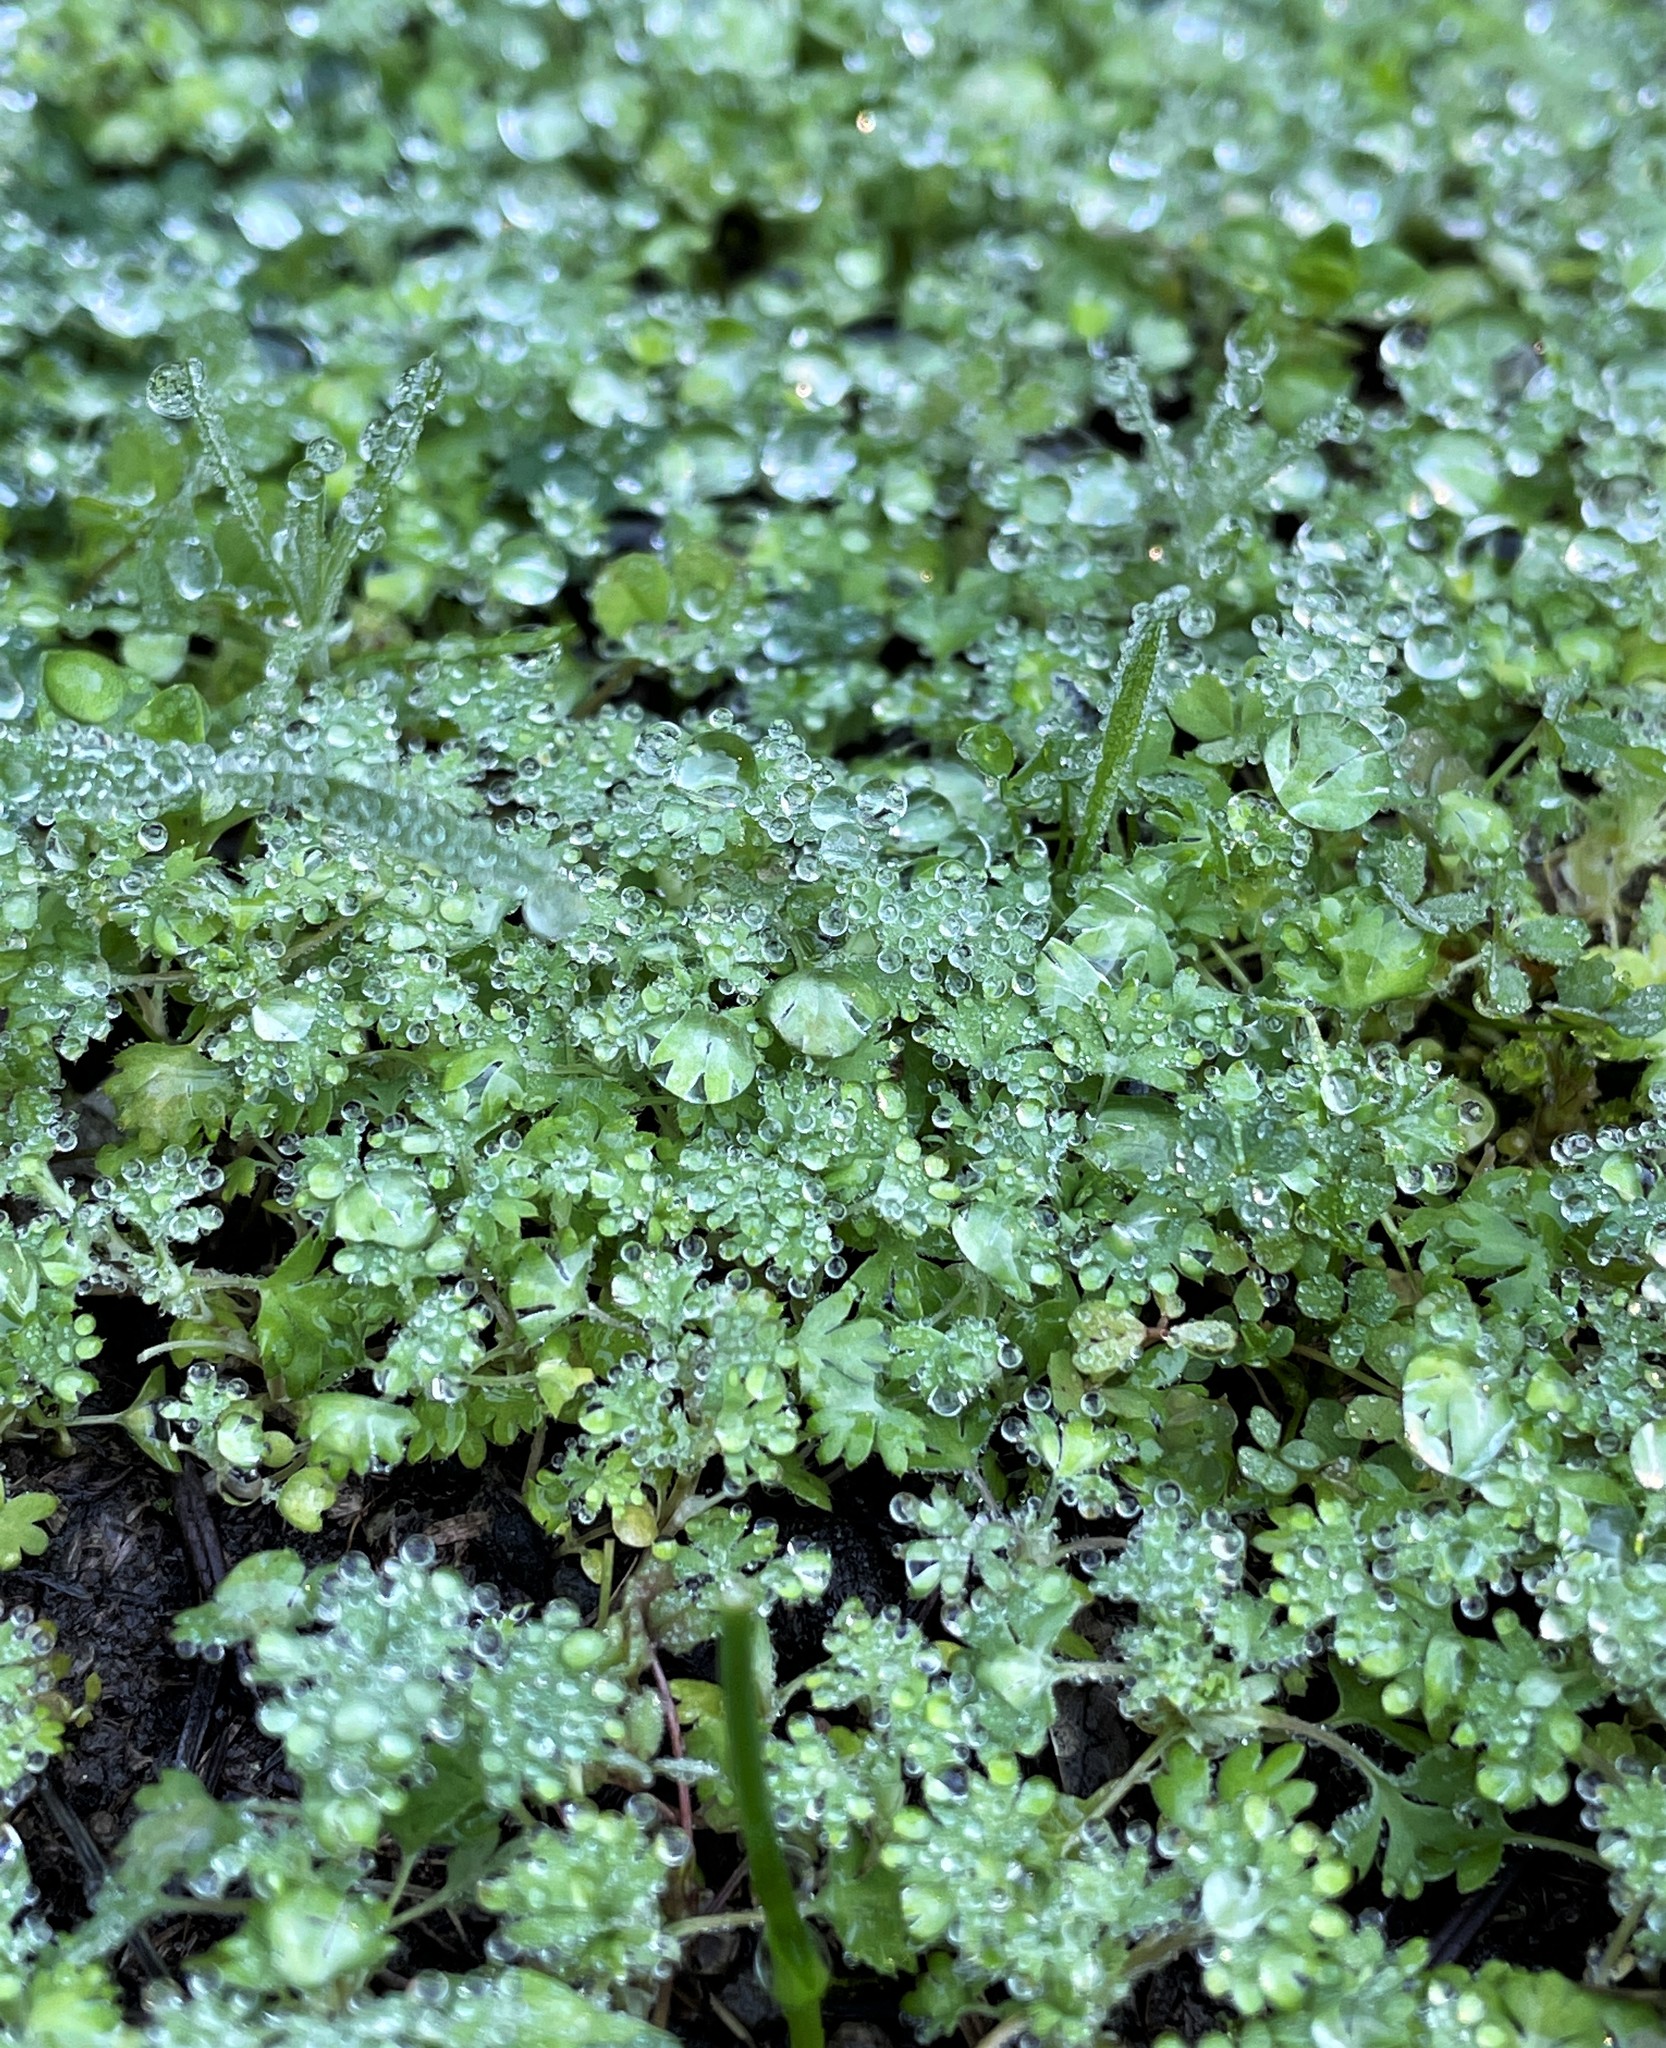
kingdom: Plantae
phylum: Tracheophyta
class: Magnoliopsida
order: Rosales
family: Rosaceae
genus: Aphanes
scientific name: Aphanes arvensis
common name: Parsley-piert
